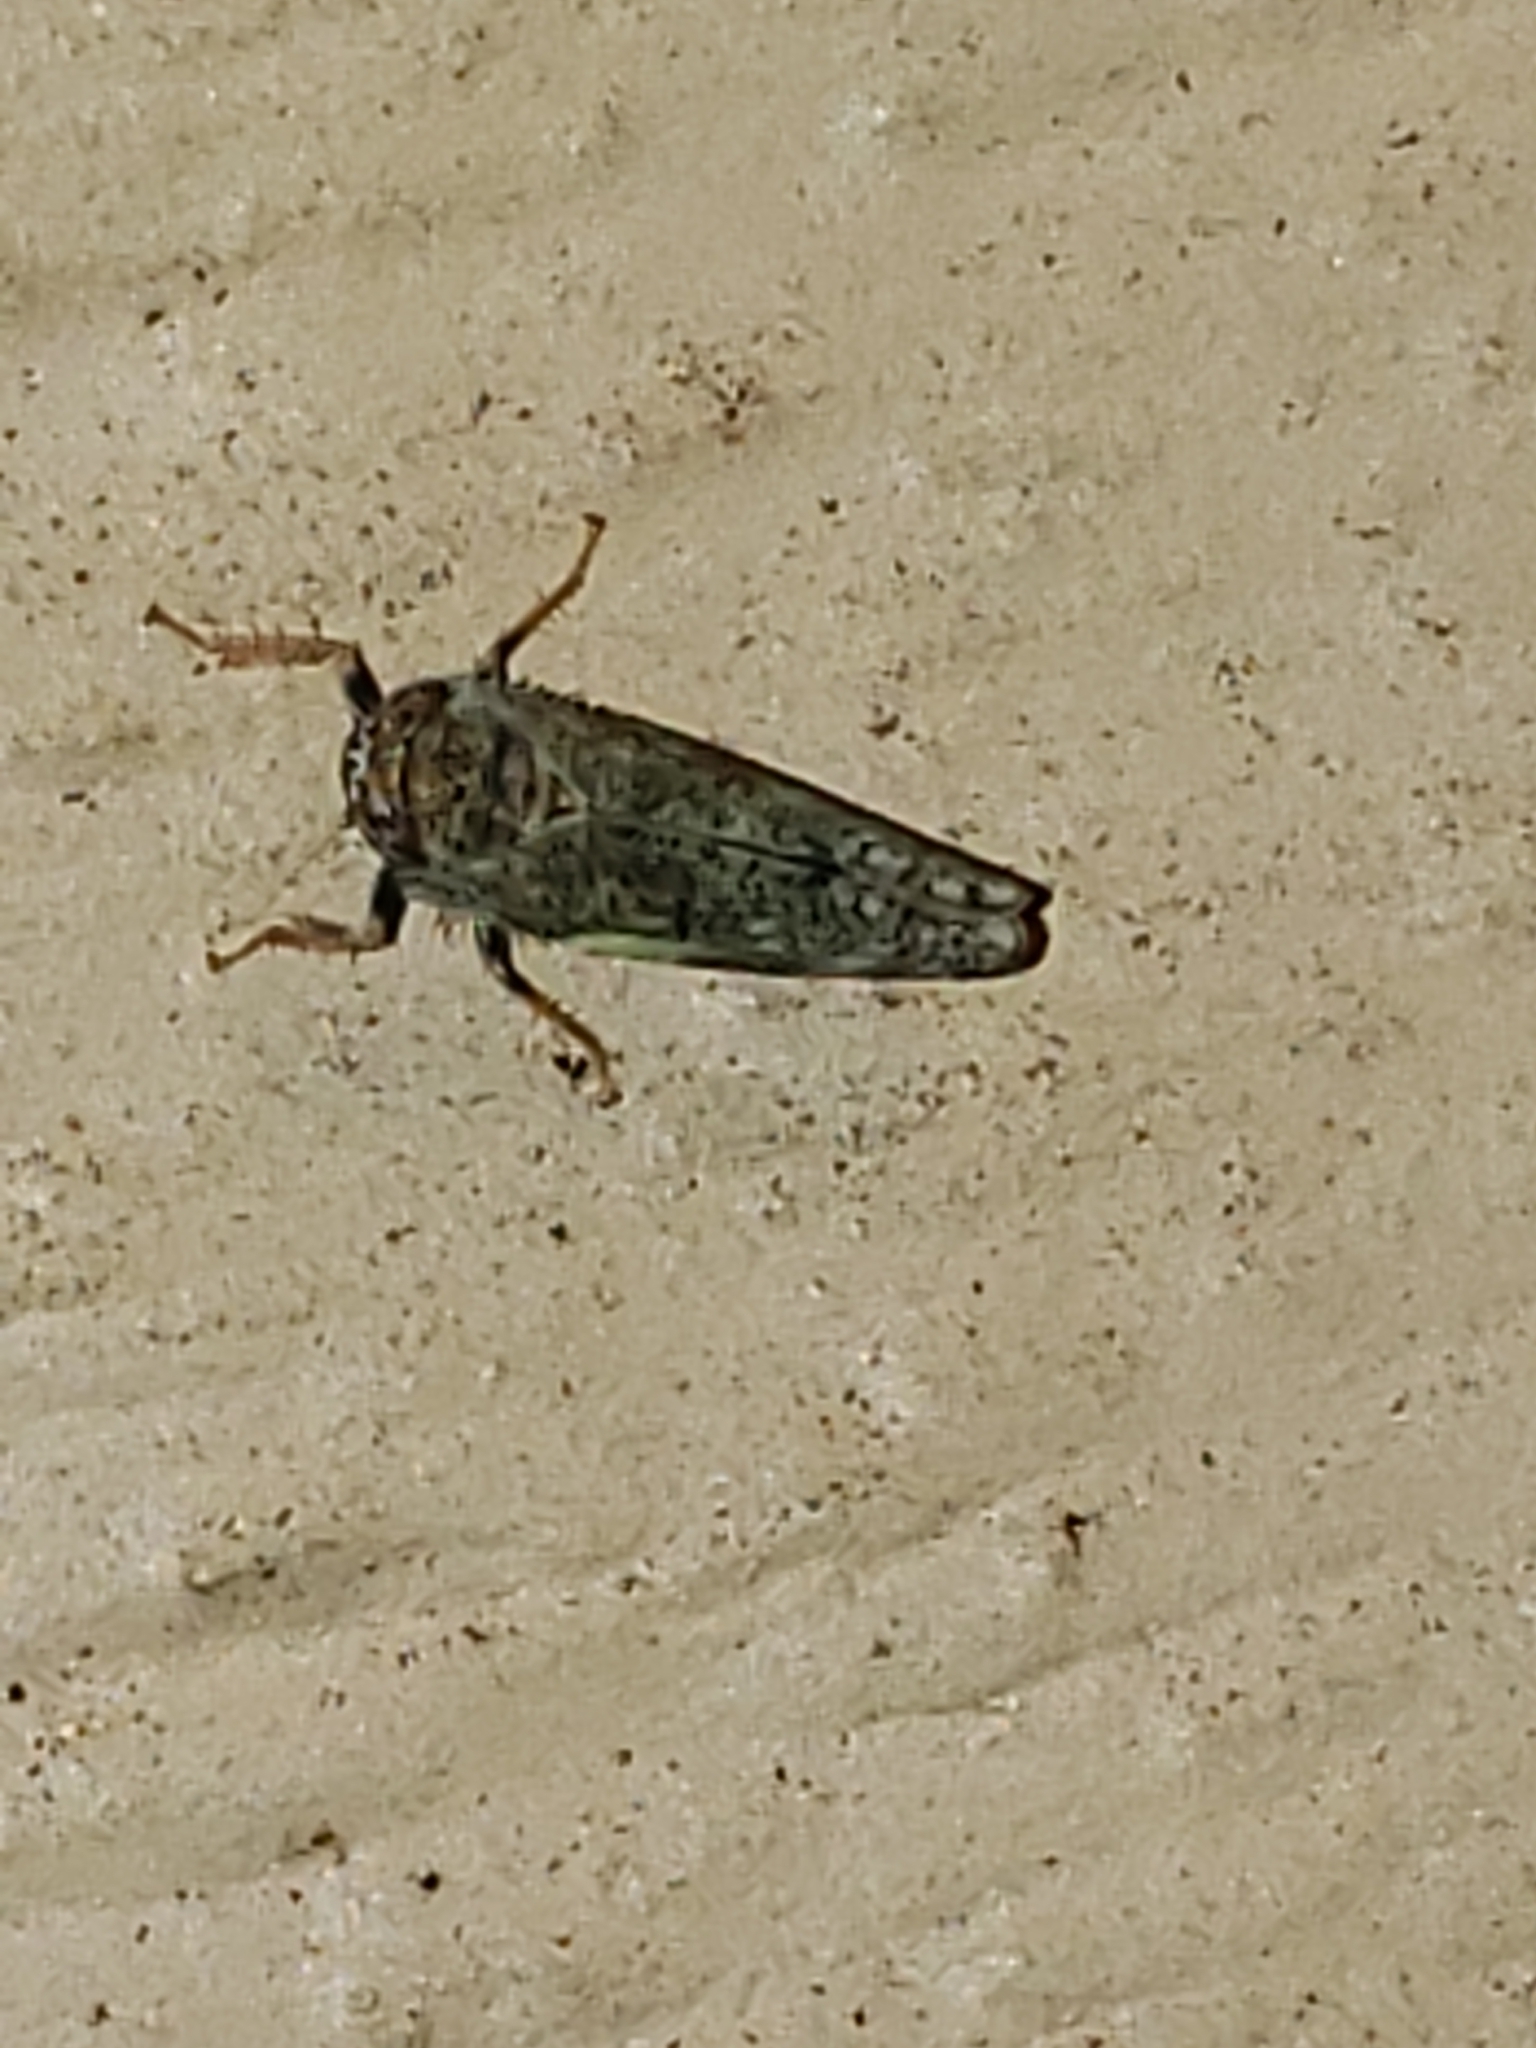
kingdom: Animalia
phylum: Arthropoda
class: Insecta
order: Hemiptera
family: Cicadellidae
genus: Orientus
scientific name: Orientus ishidae
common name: Japanese leafhopper
